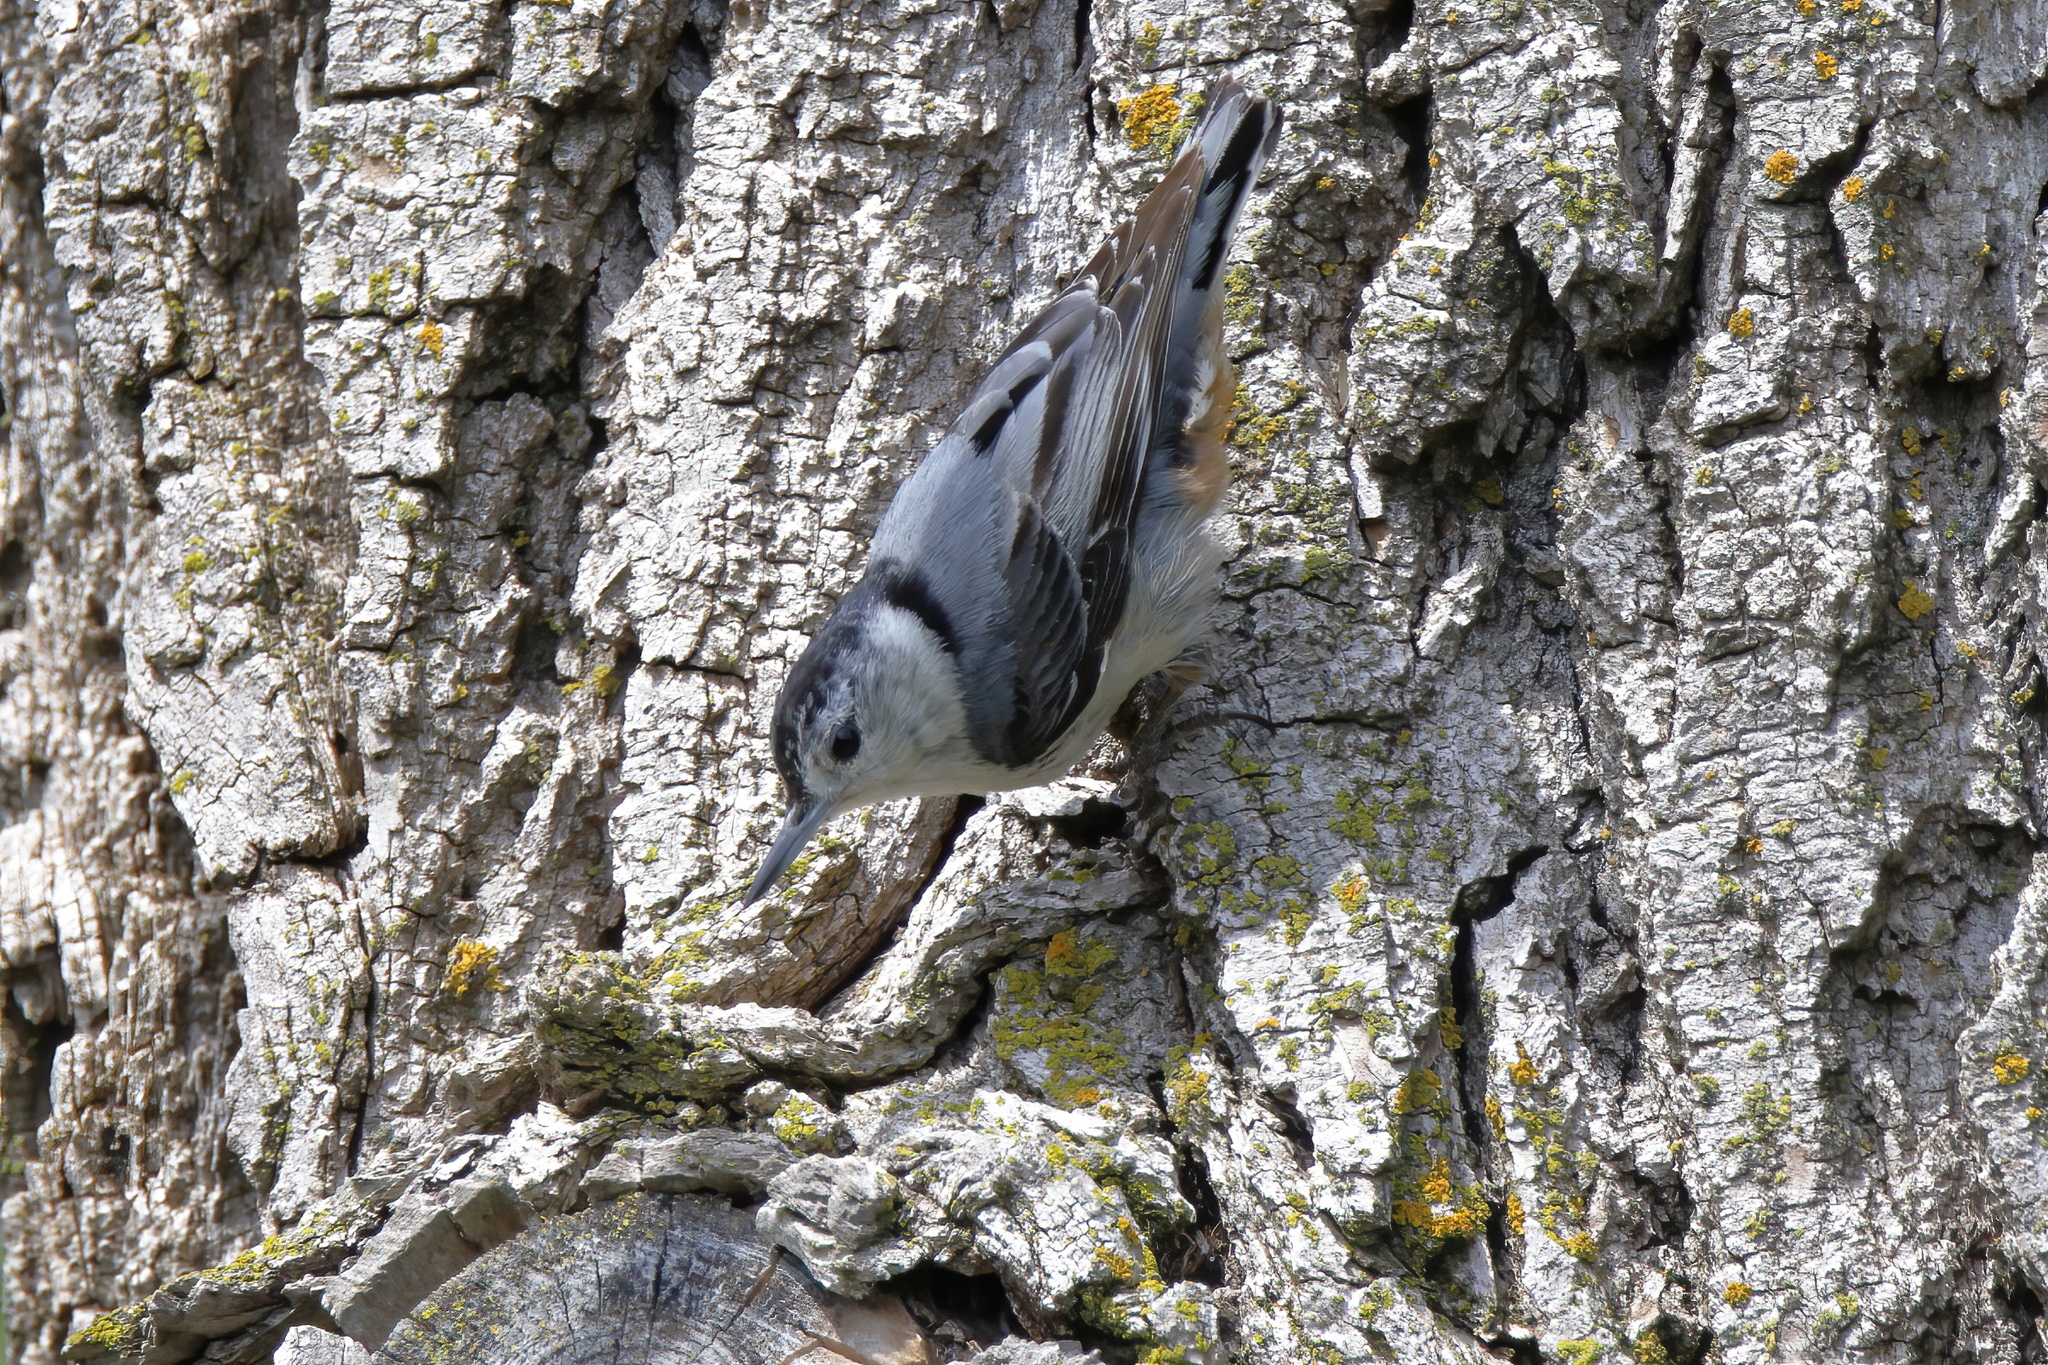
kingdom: Animalia
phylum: Chordata
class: Aves
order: Passeriformes
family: Sittidae
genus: Sitta
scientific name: Sitta carolinensis
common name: White-breasted nuthatch
